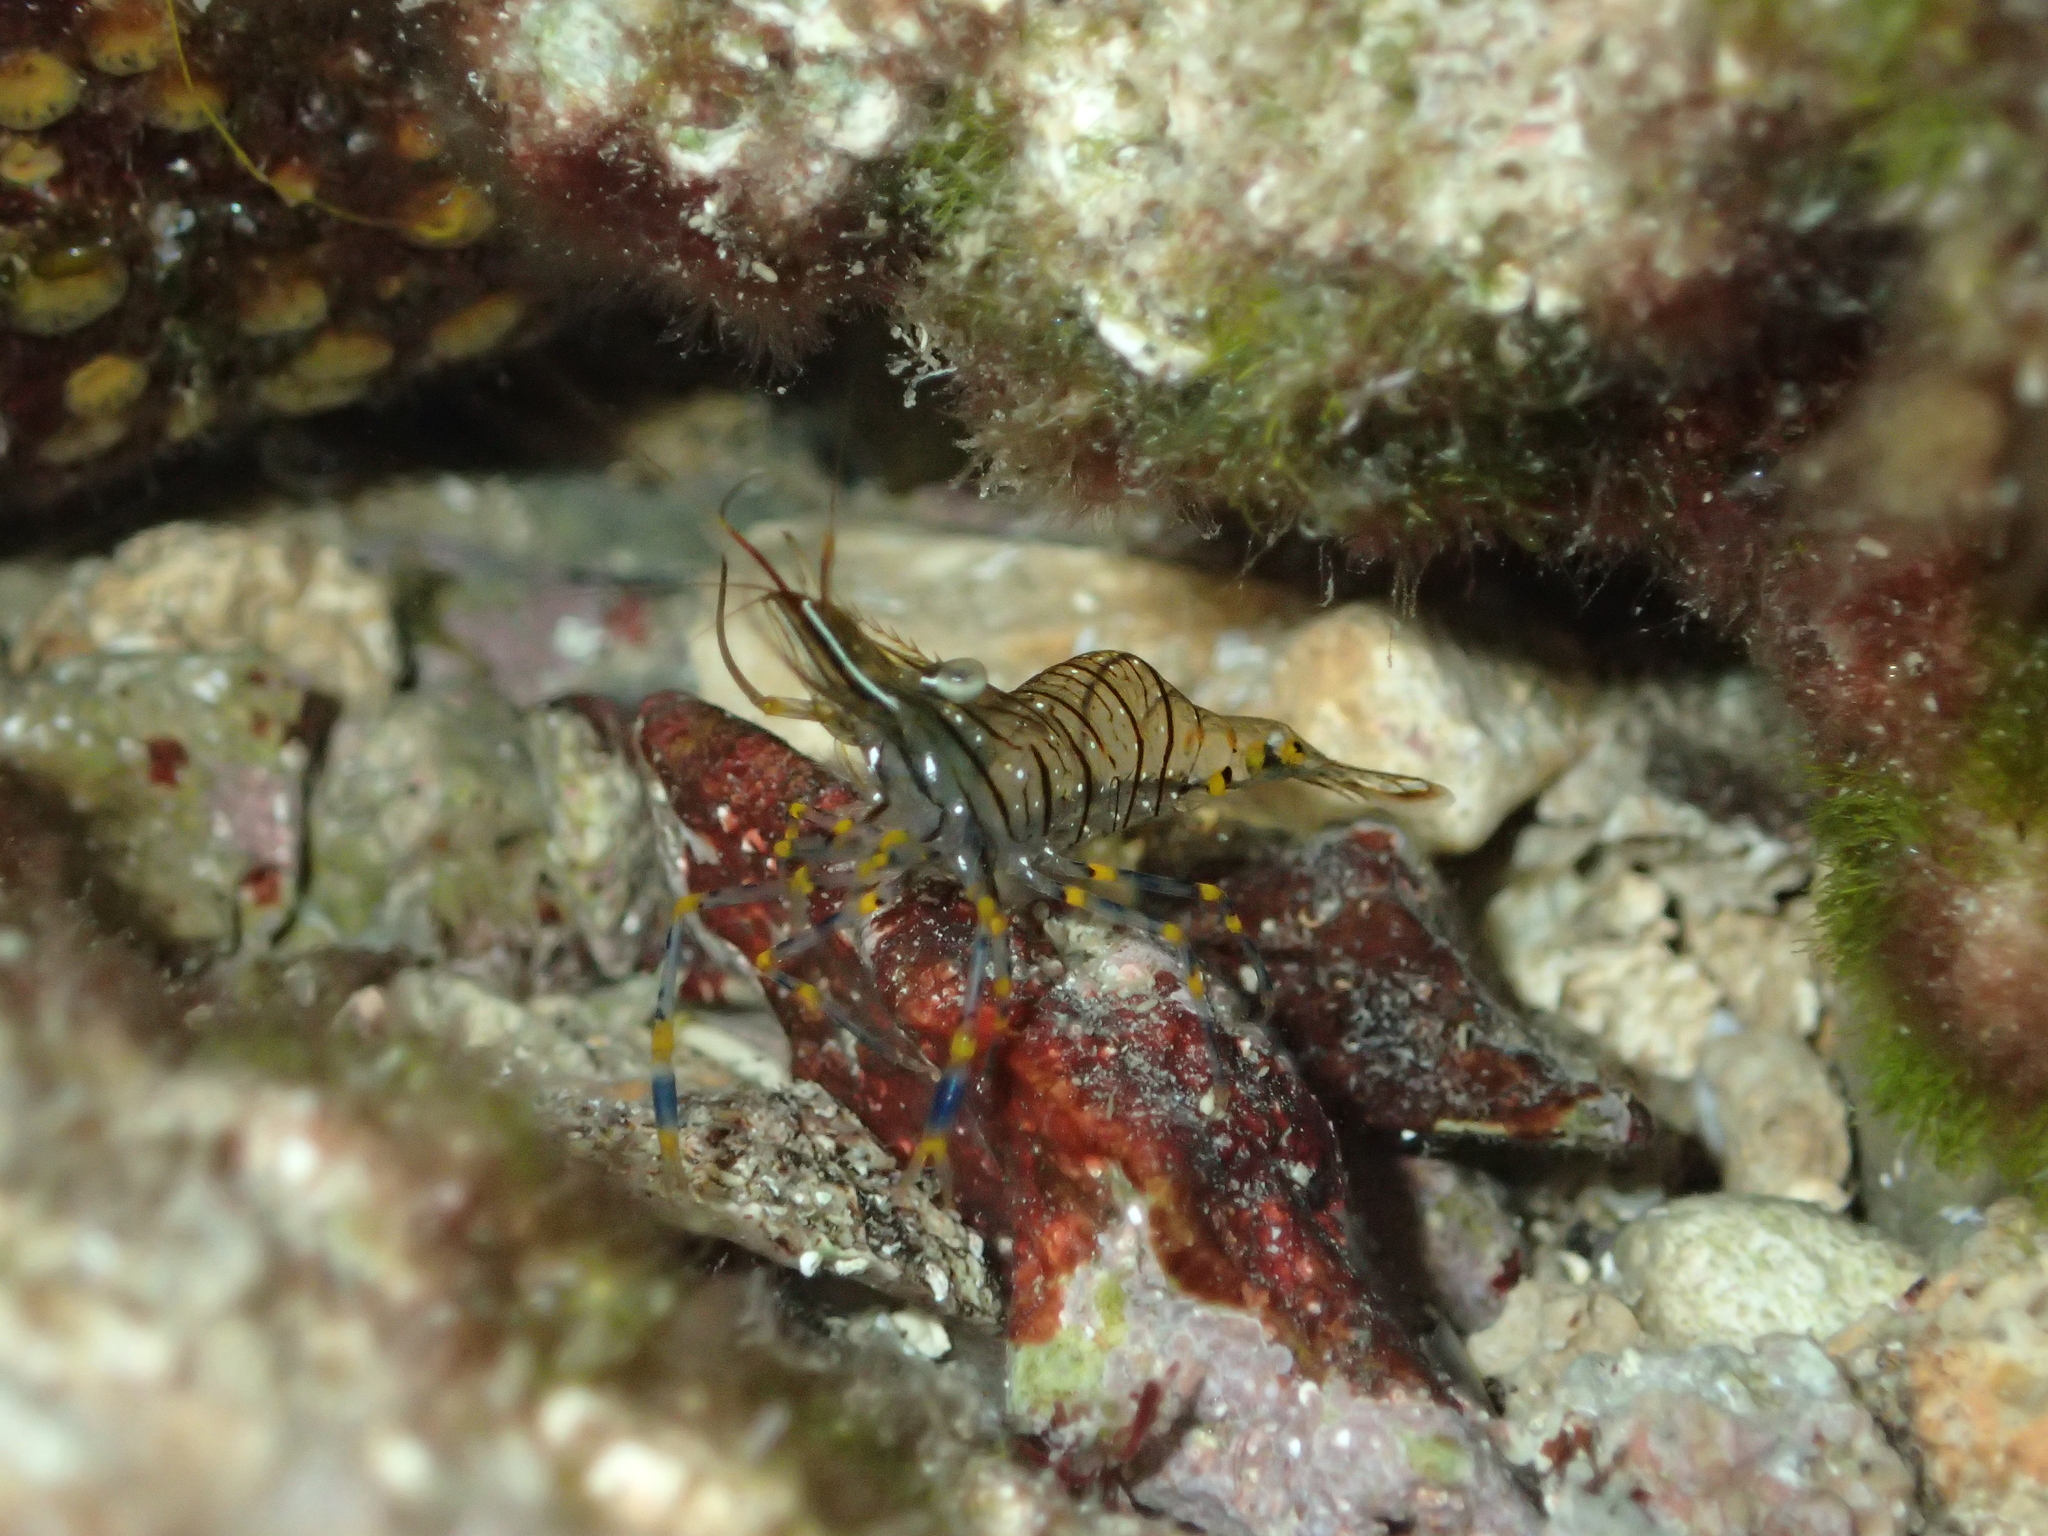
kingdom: Animalia
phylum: Arthropoda
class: Malacostraca
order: Decapoda
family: Palaemonidae
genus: Palaemon
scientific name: Palaemon elegans
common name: Grass prawm
